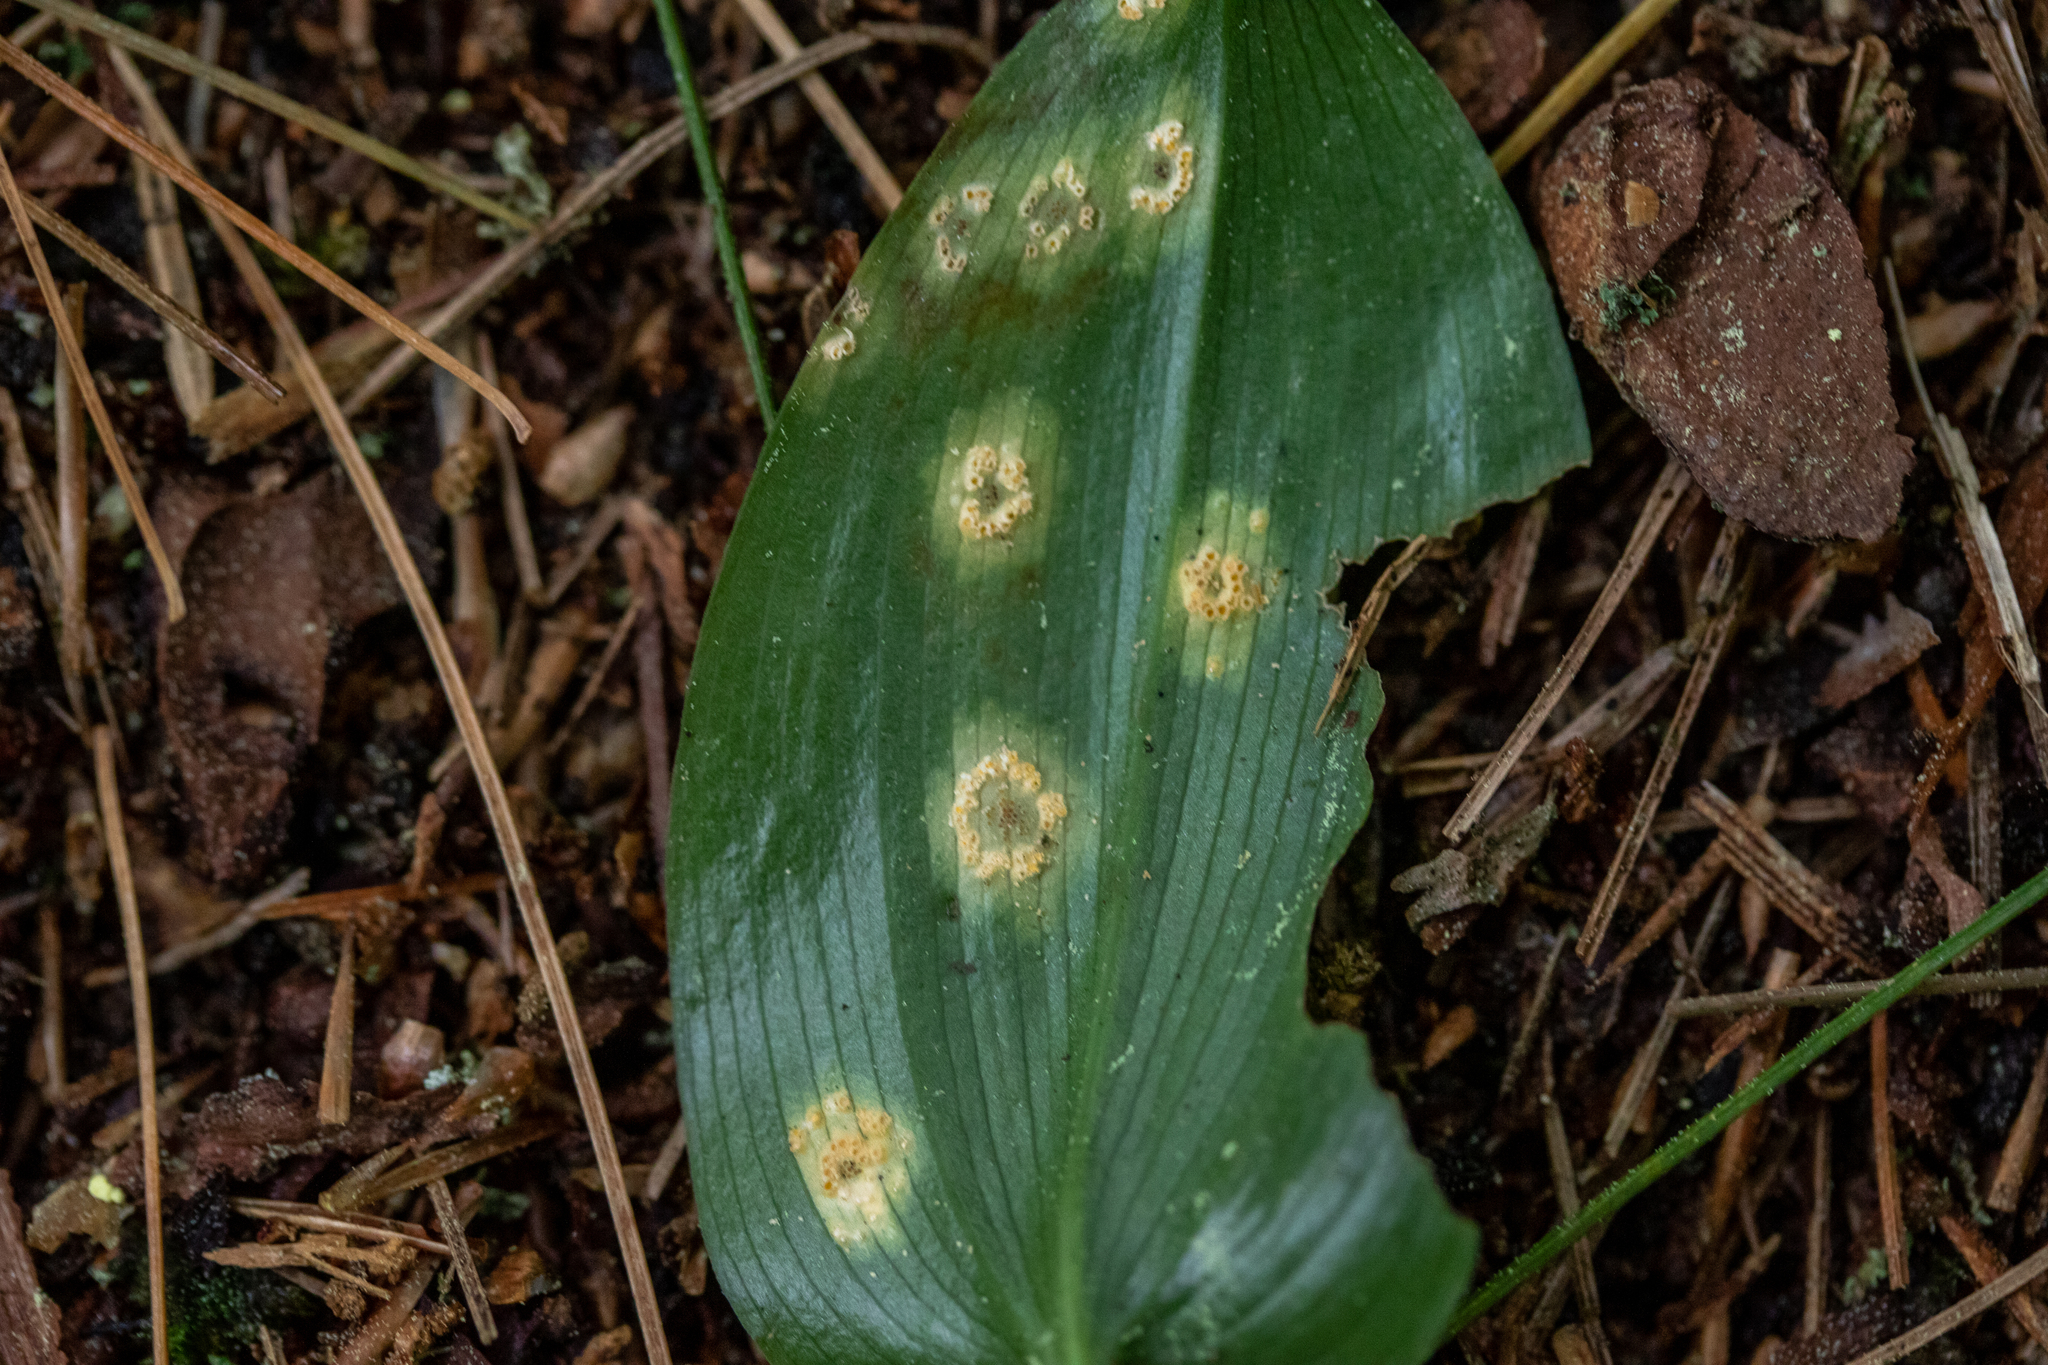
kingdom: Fungi
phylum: Basidiomycota
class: Pucciniomycetes
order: Pucciniales
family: Endoraeciaceae
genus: Endoraecium
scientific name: Endoraecium phyllodiorum
